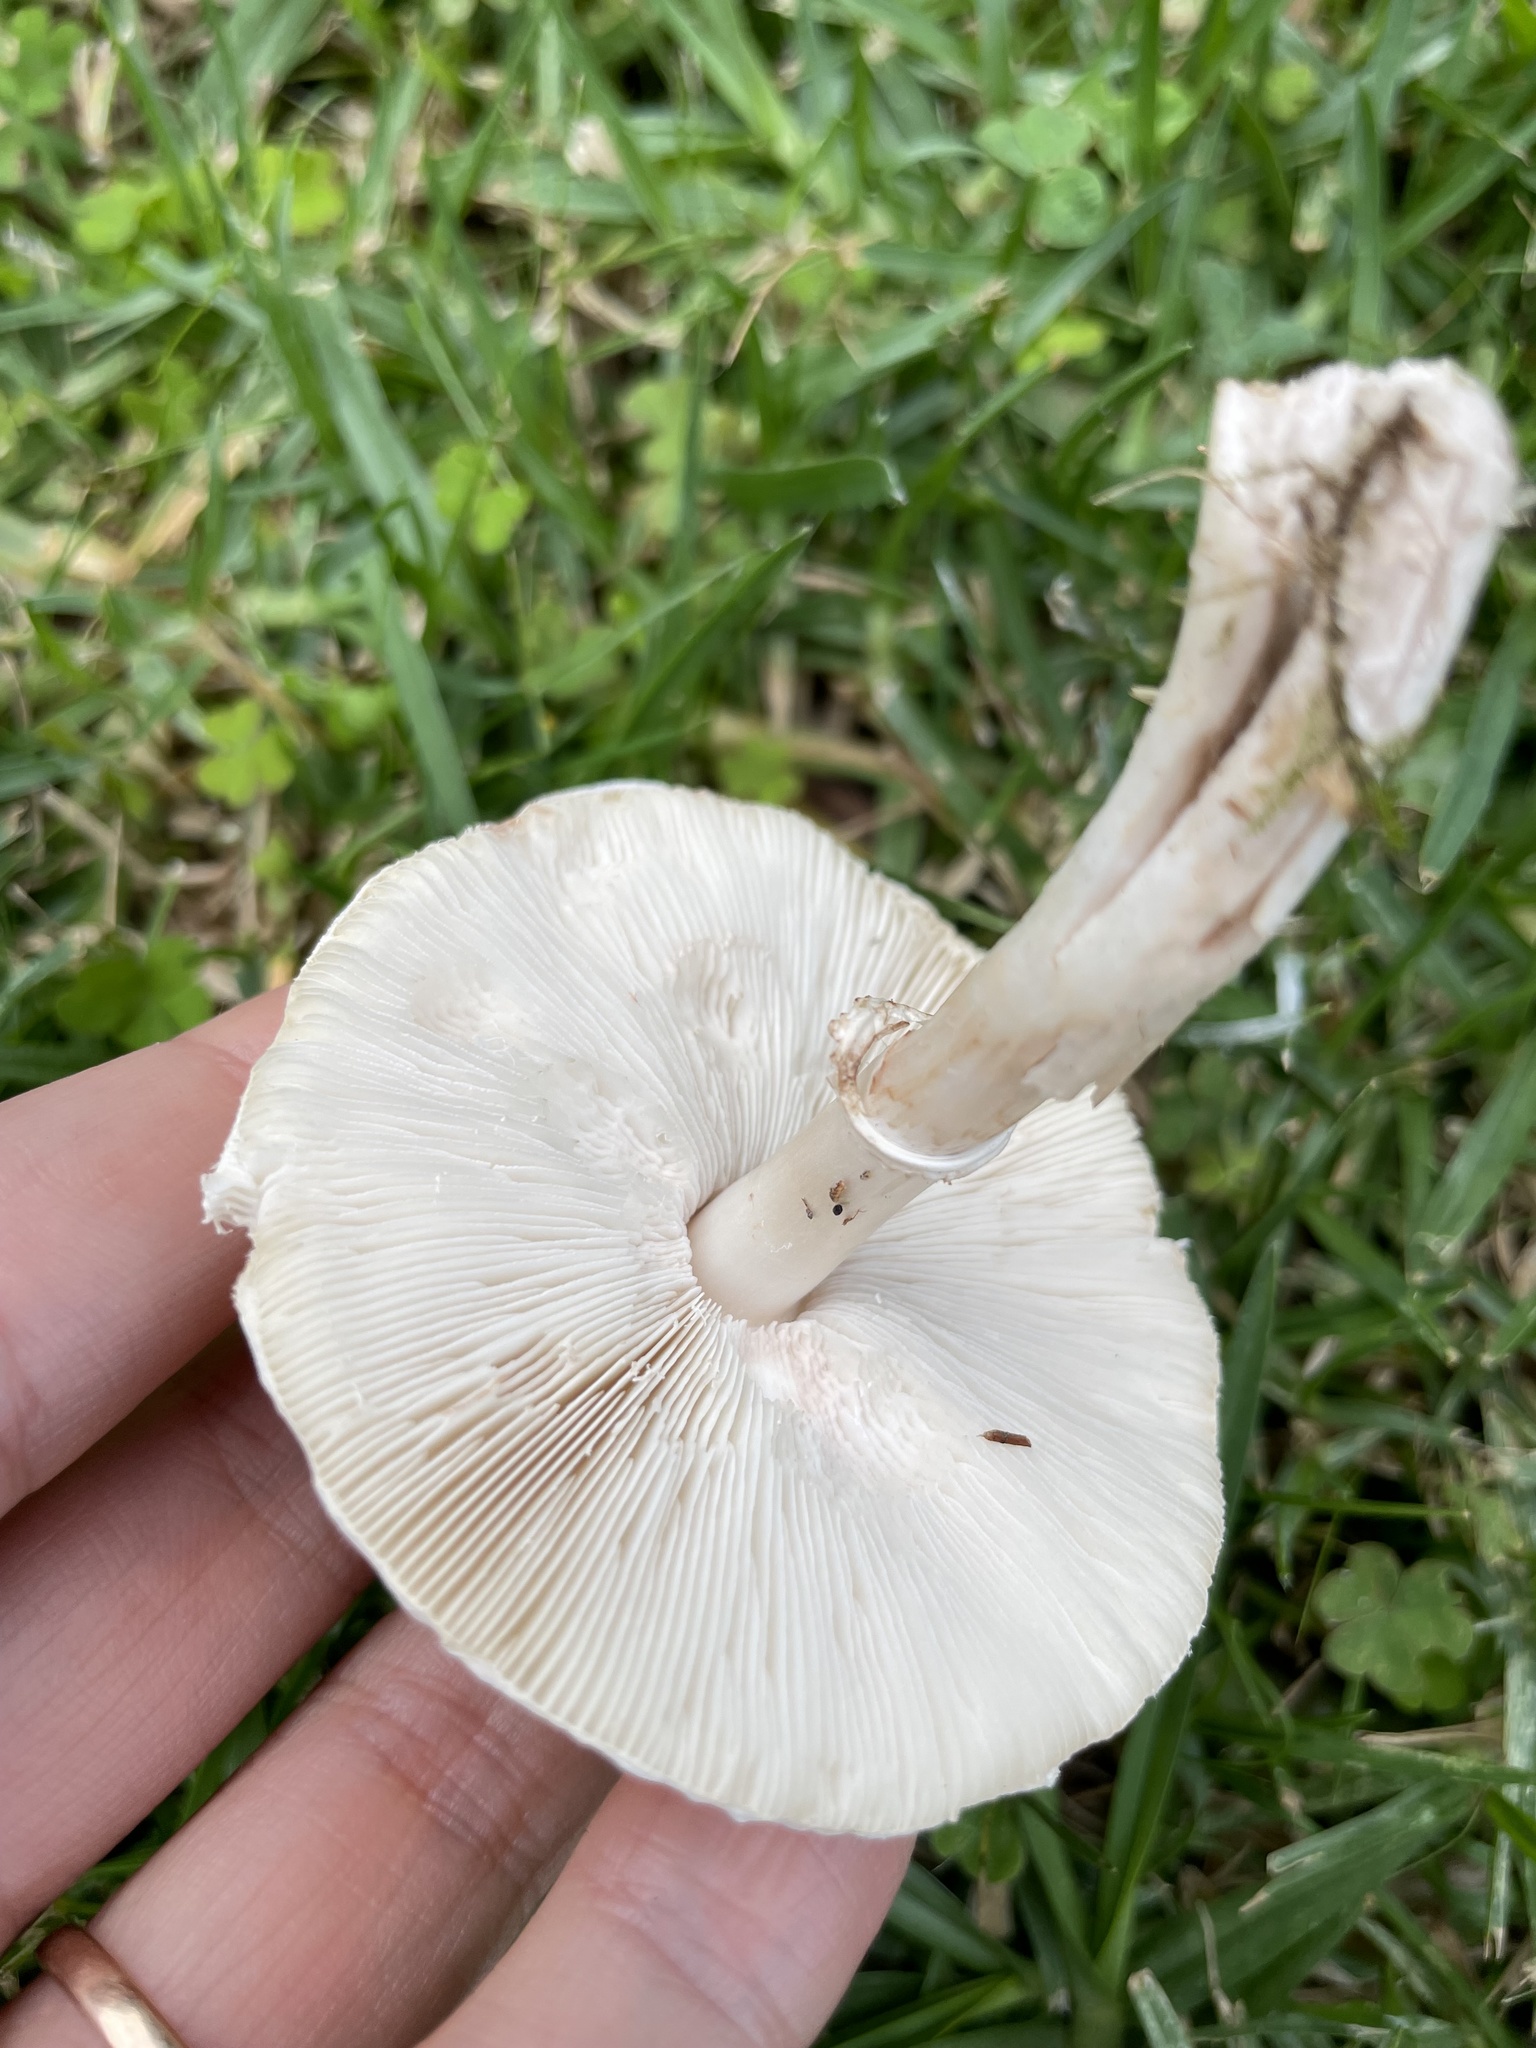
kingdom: Fungi
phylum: Basidiomycota
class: Agaricomycetes
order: Agaricales
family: Agaricaceae
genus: Leucoagaricus
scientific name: Leucoagaricus leucothites
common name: White dapperling
